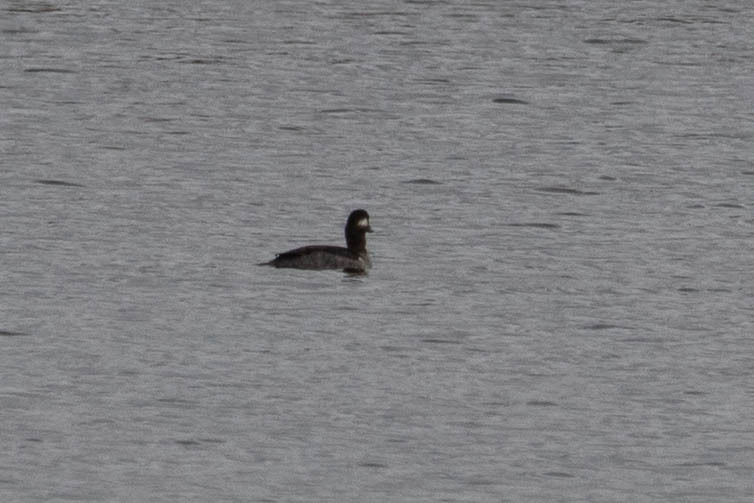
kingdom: Animalia
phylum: Chordata
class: Aves
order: Anseriformes
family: Anatidae
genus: Bucephala
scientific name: Bucephala albeola
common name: Bufflehead
